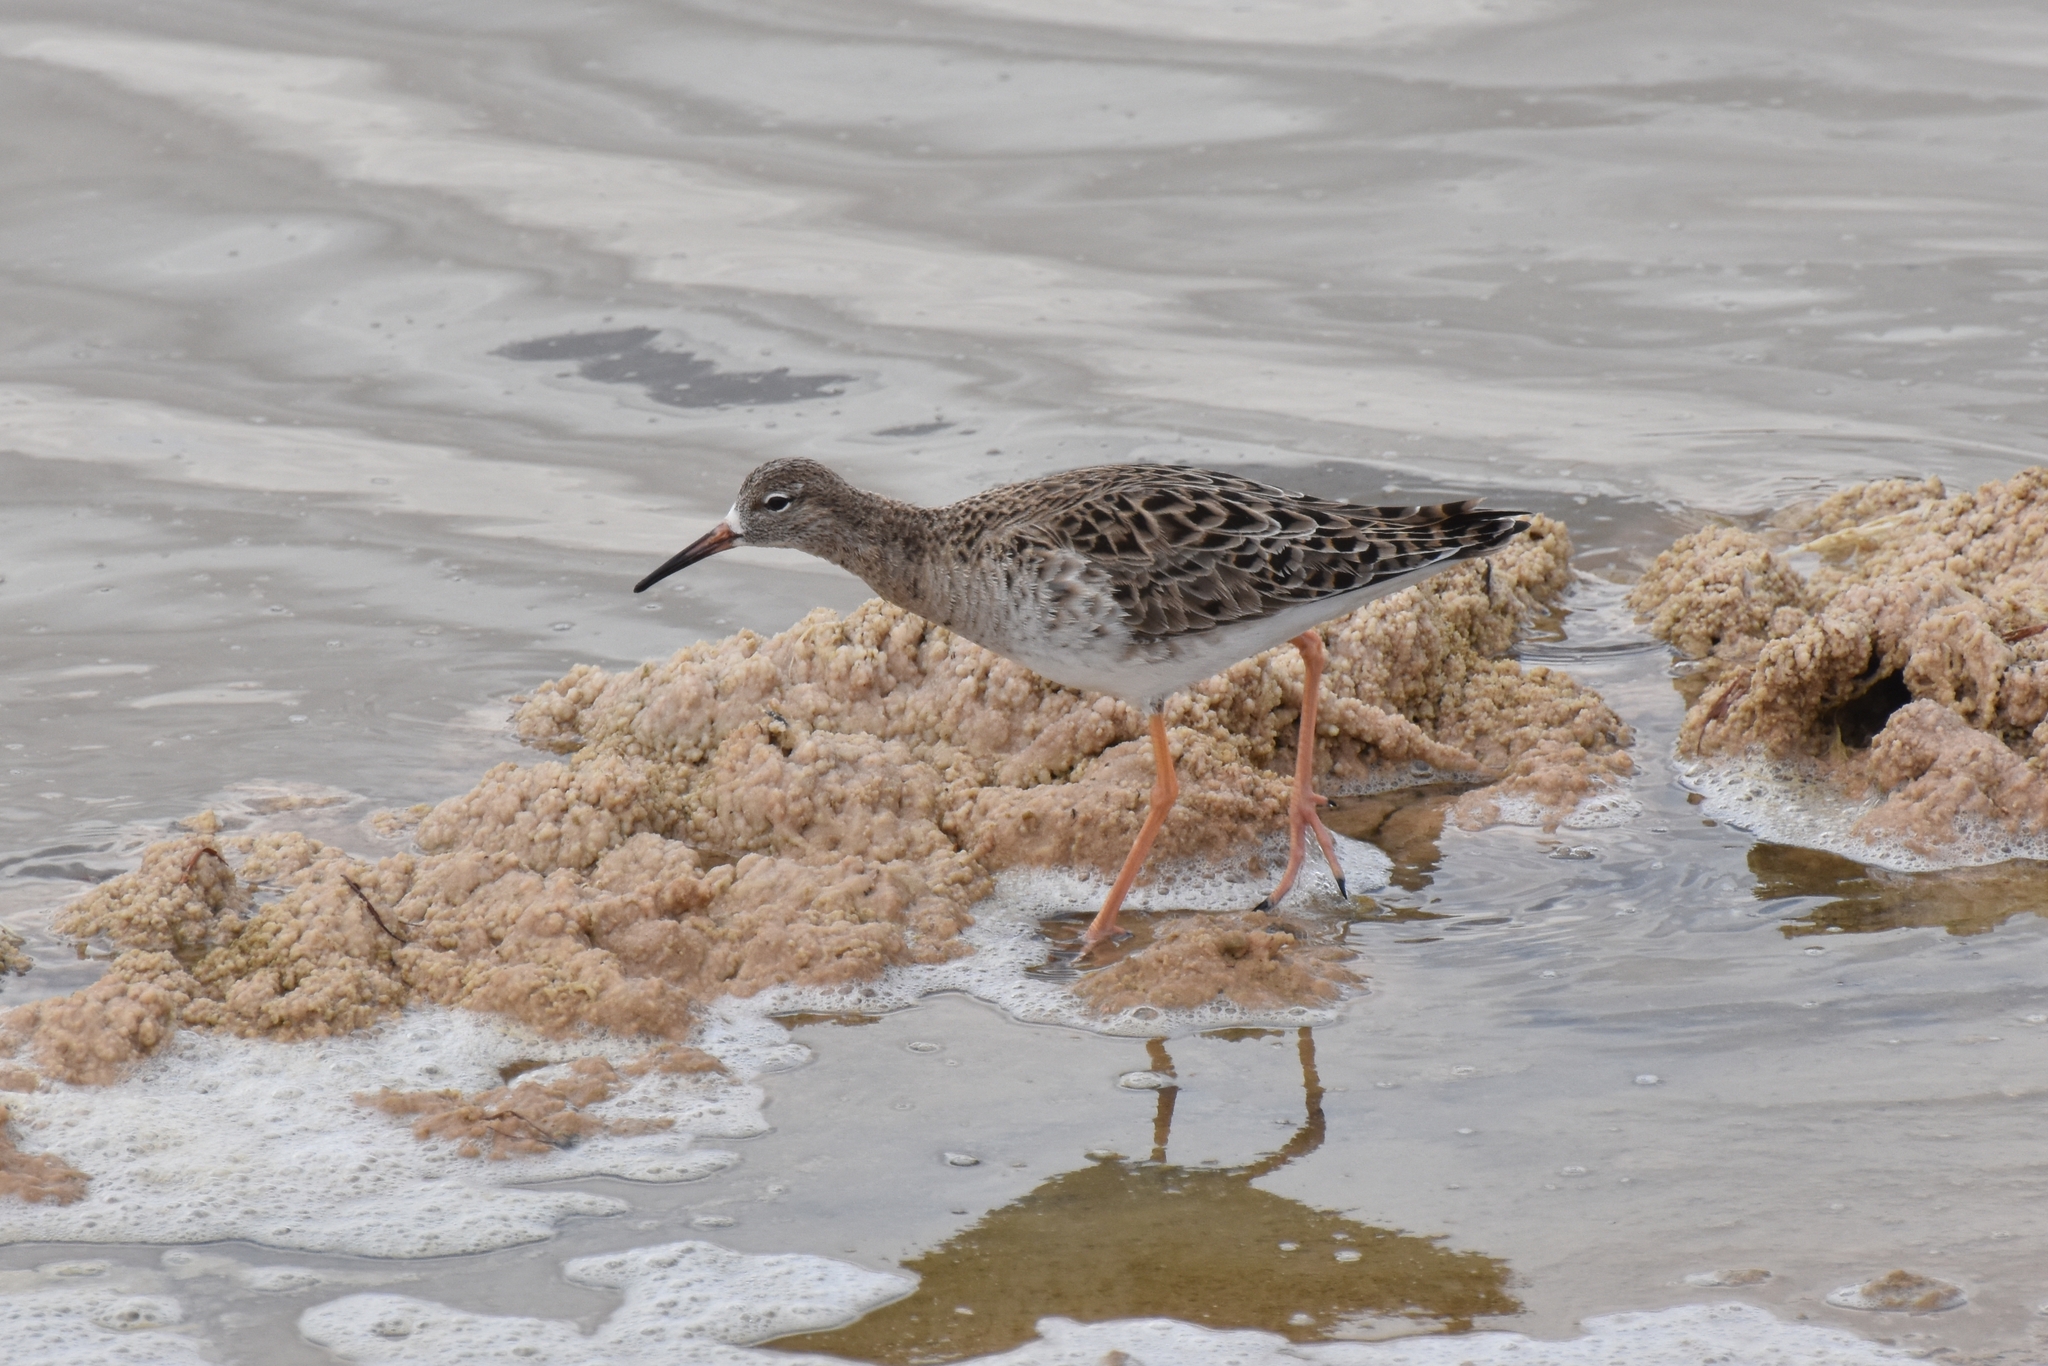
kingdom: Animalia
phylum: Chordata
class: Aves
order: Charadriiformes
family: Scolopacidae
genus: Calidris
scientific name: Calidris pugnax
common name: Ruff
